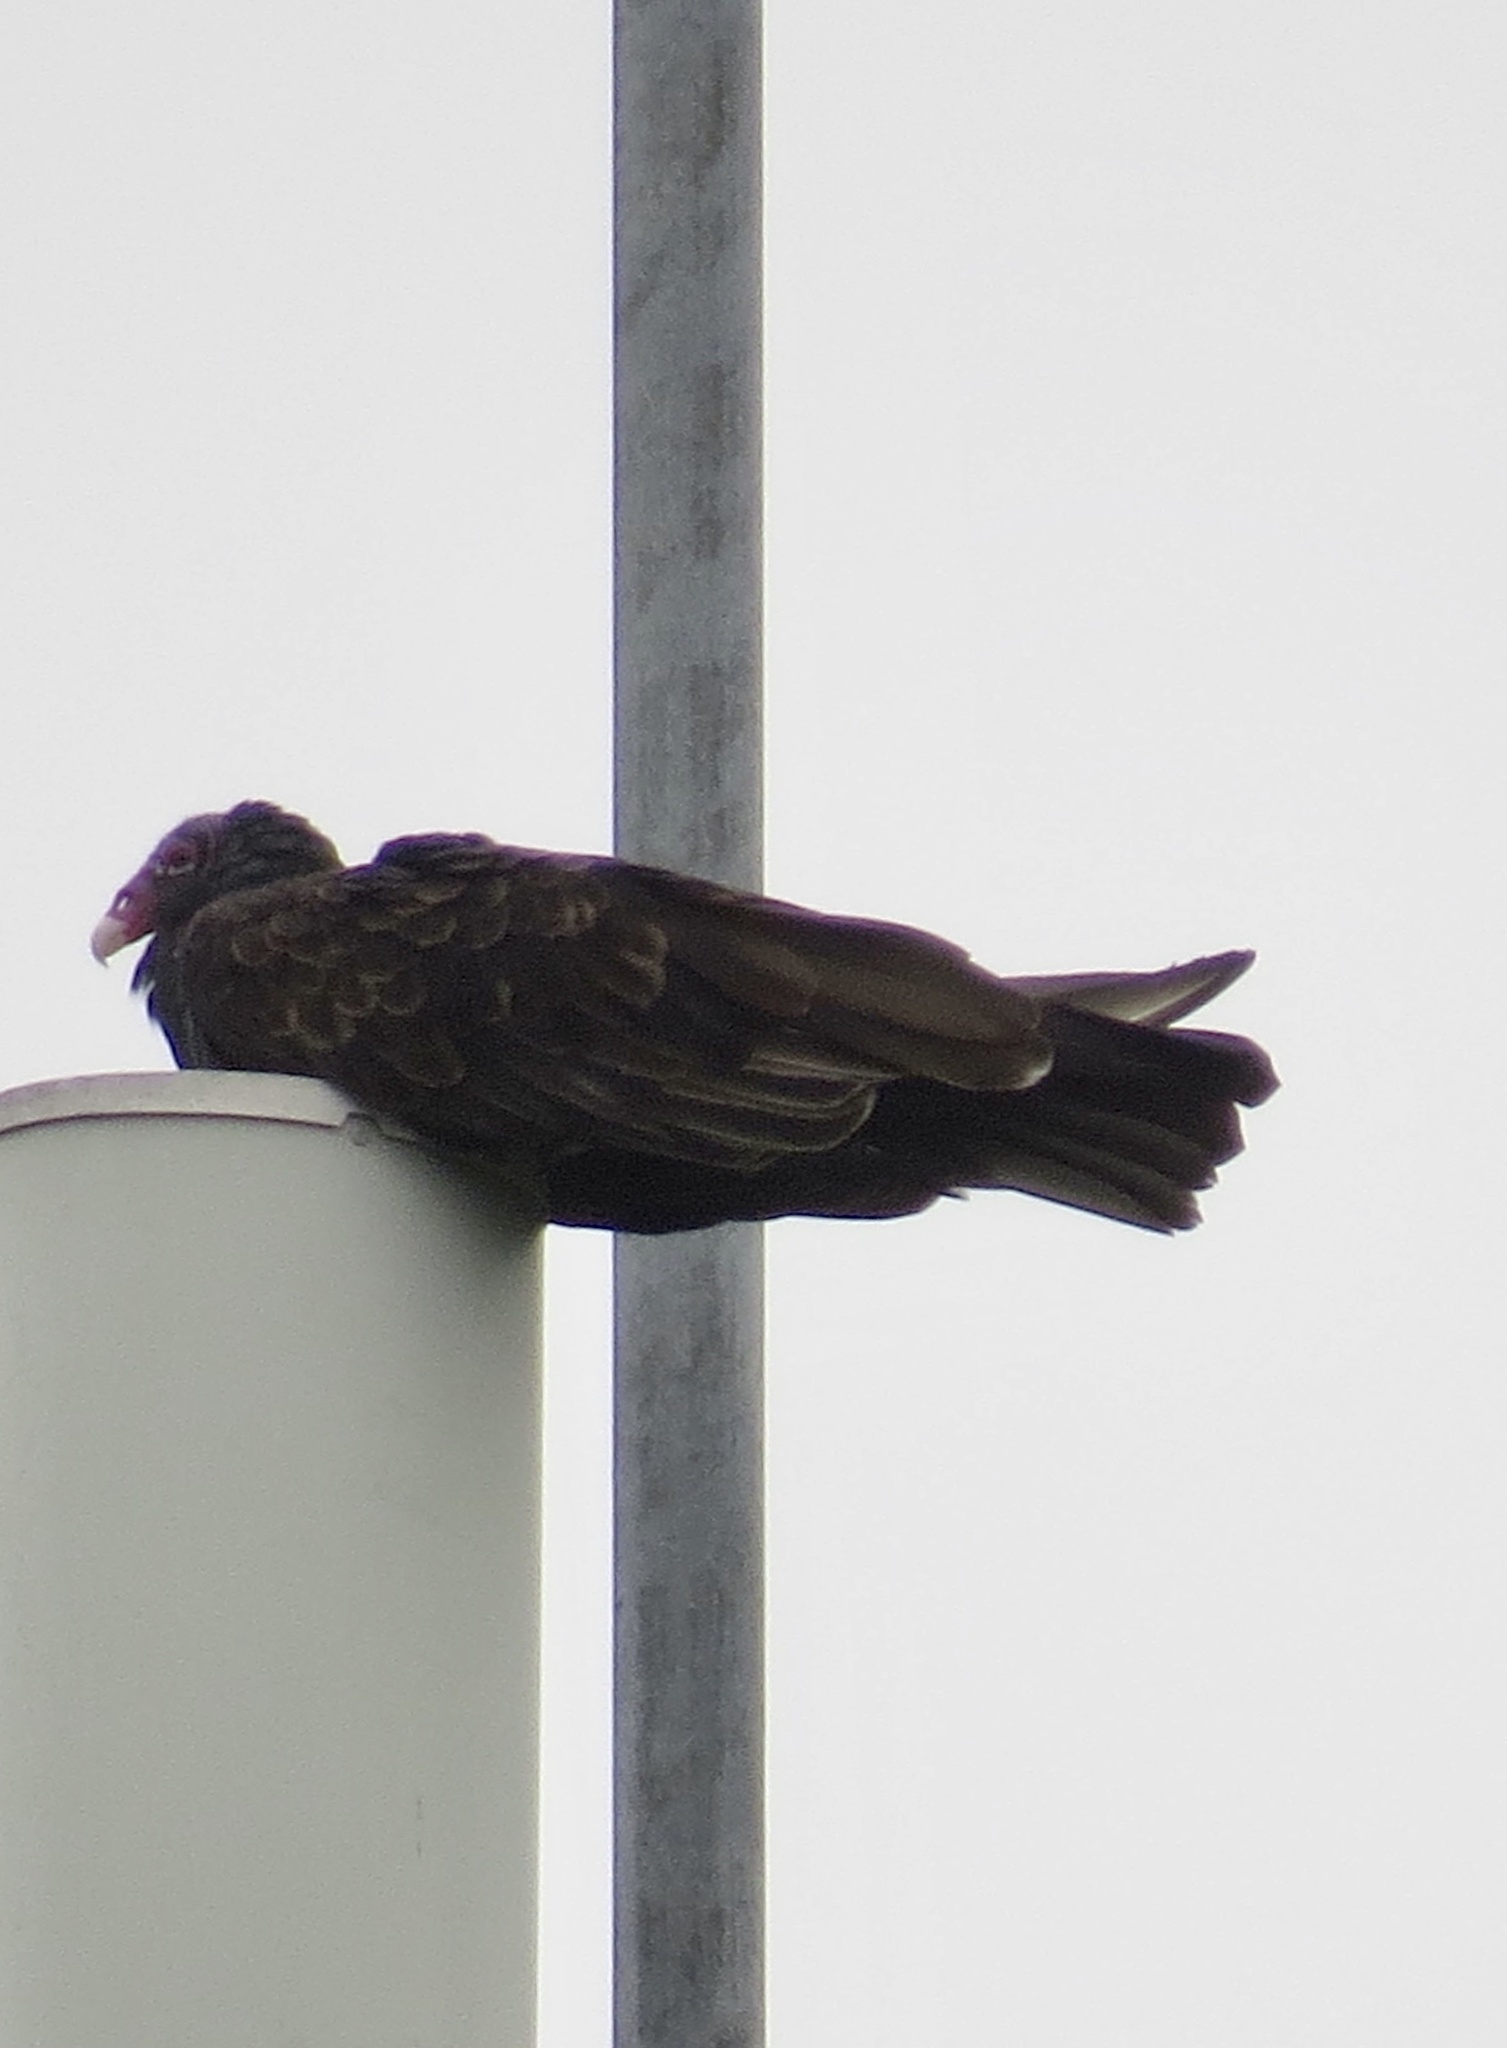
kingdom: Animalia
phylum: Chordata
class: Aves
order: Accipitriformes
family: Cathartidae
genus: Cathartes
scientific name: Cathartes aura
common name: Turkey vulture
